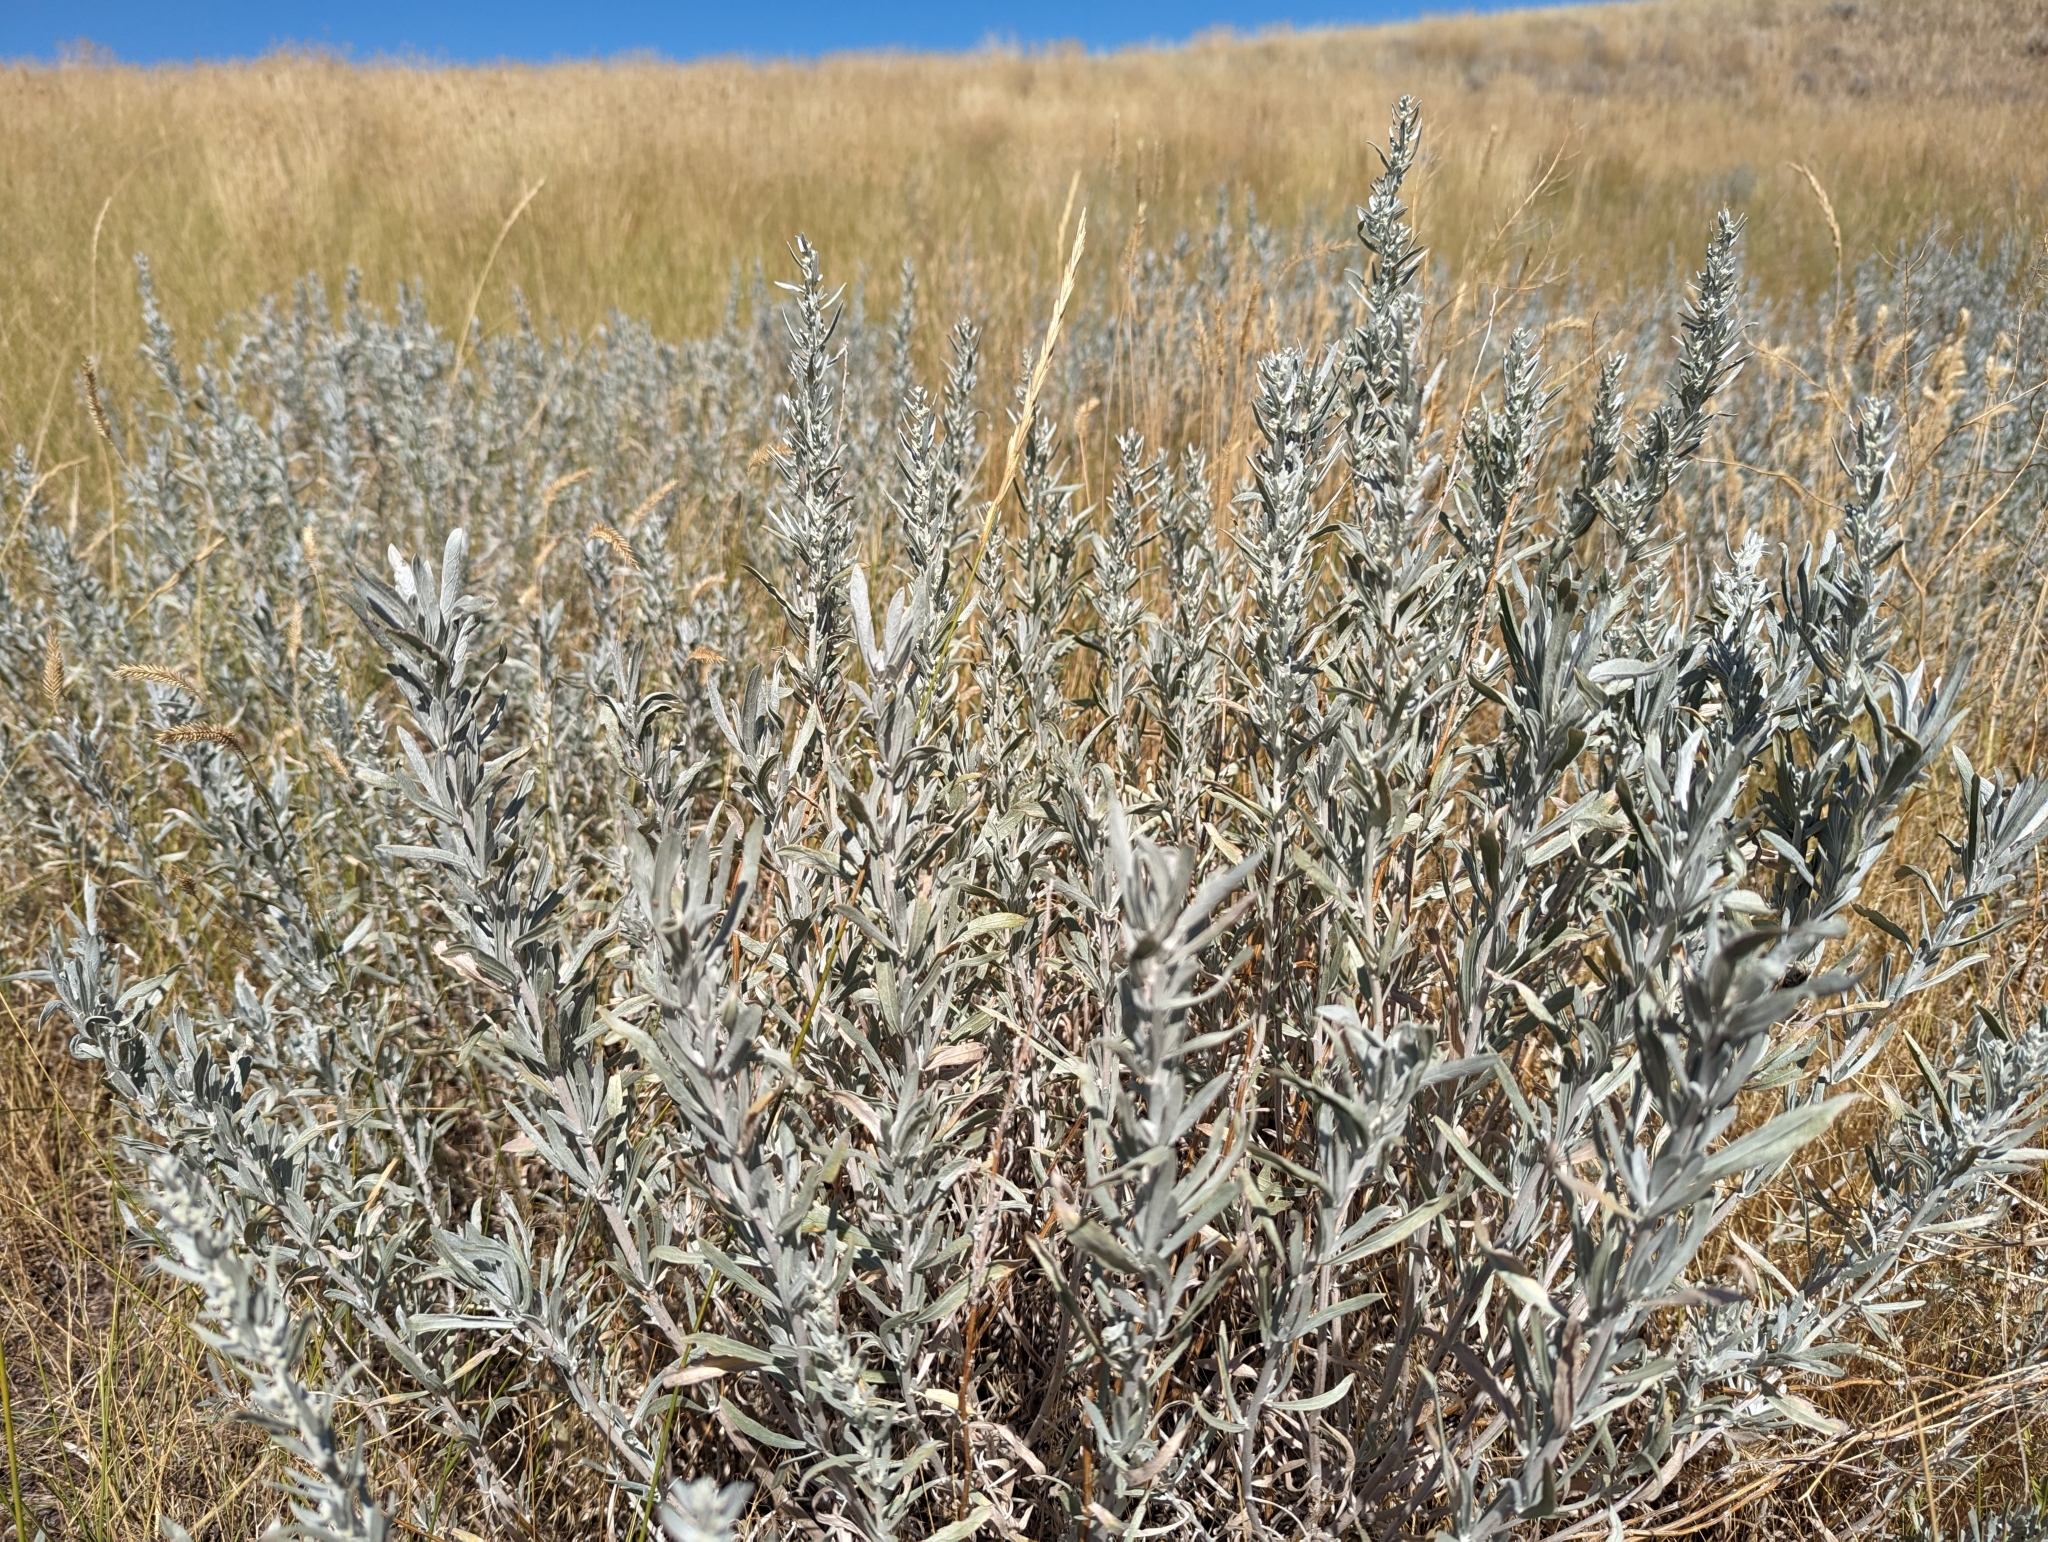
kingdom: Plantae
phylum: Tracheophyta
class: Magnoliopsida
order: Asterales
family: Asteraceae
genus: Artemisia
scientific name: Artemisia cana
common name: Silver sagebrush
